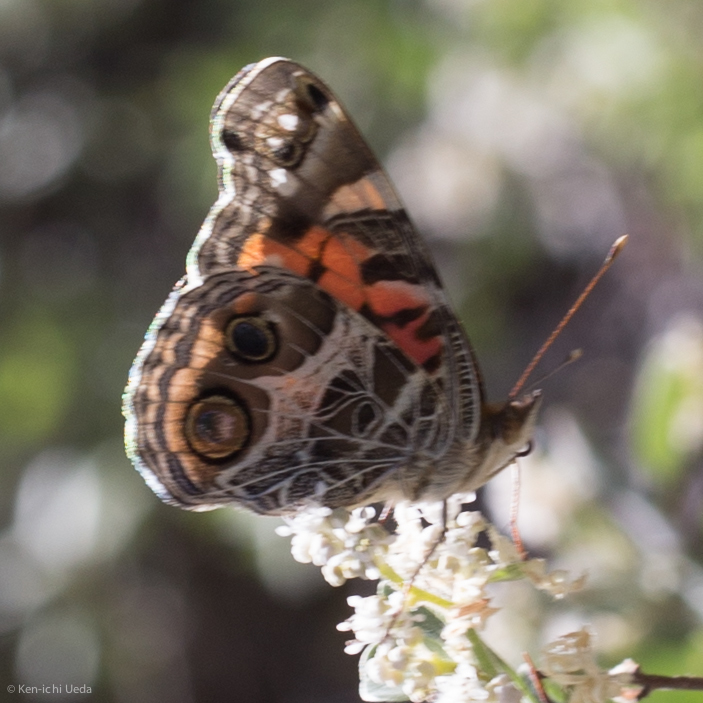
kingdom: Animalia
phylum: Arthropoda
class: Insecta
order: Lepidoptera
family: Nymphalidae
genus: Vanessa
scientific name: Vanessa virginiensis
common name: American lady
